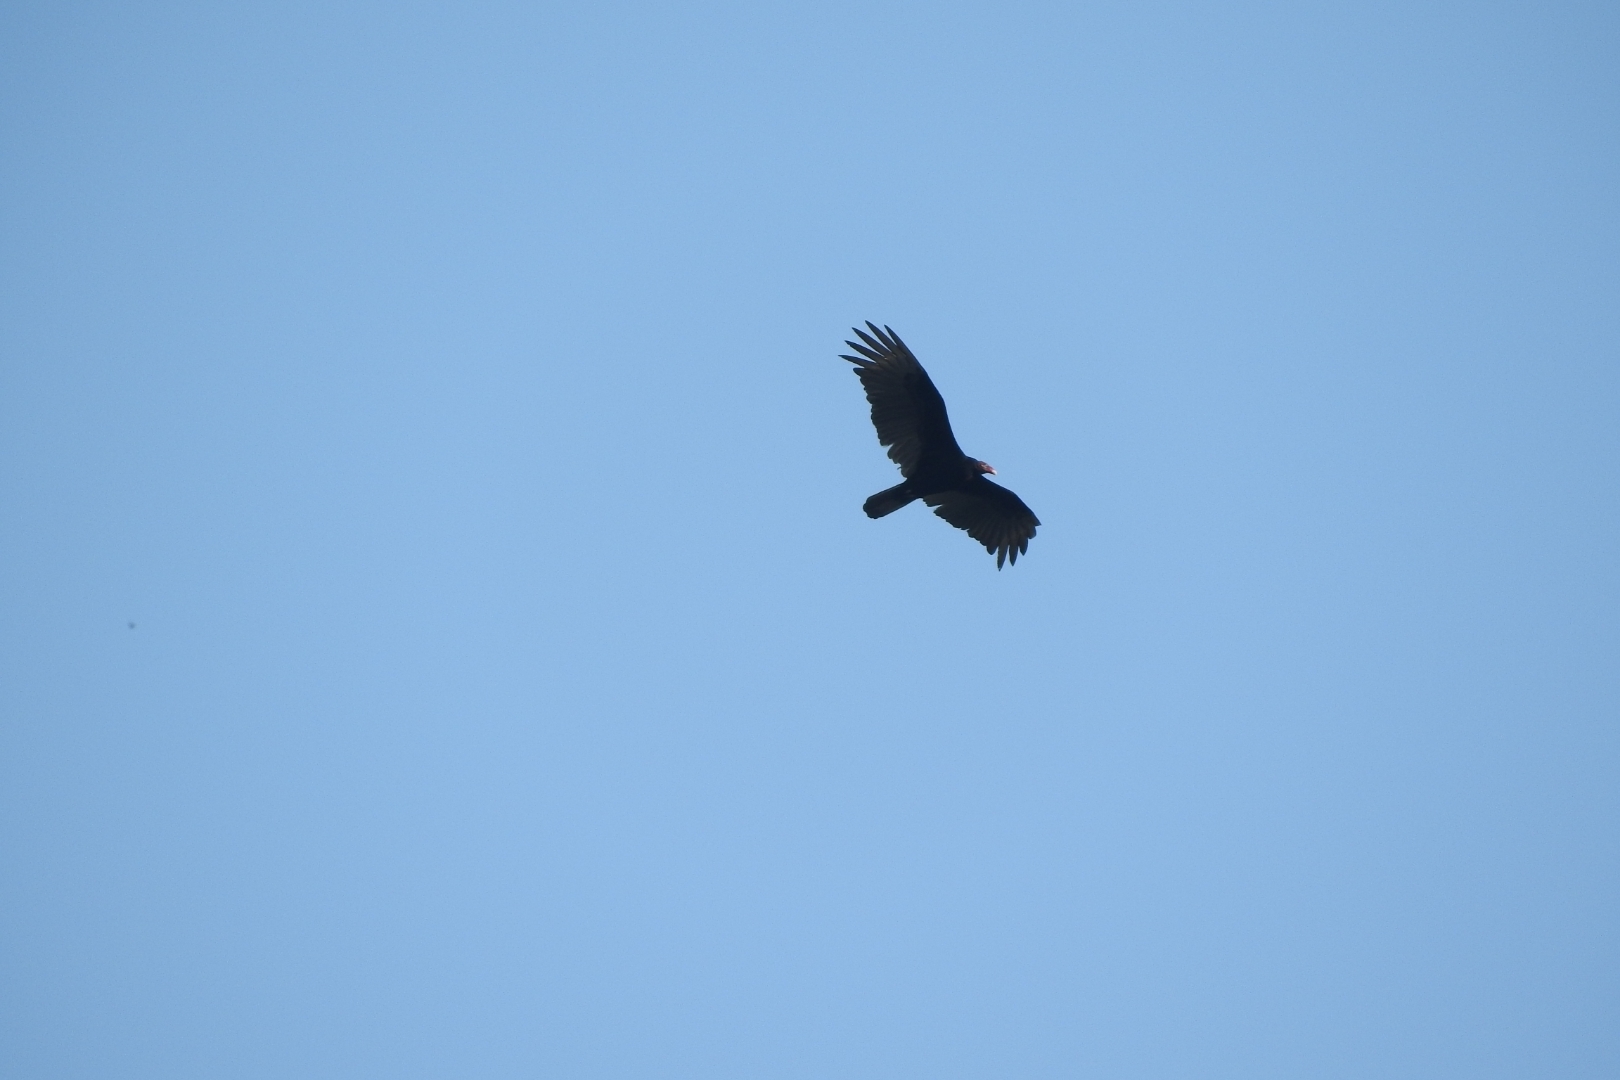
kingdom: Animalia
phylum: Chordata
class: Aves
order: Accipitriformes
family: Cathartidae
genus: Cathartes
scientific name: Cathartes aura
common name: Turkey vulture
